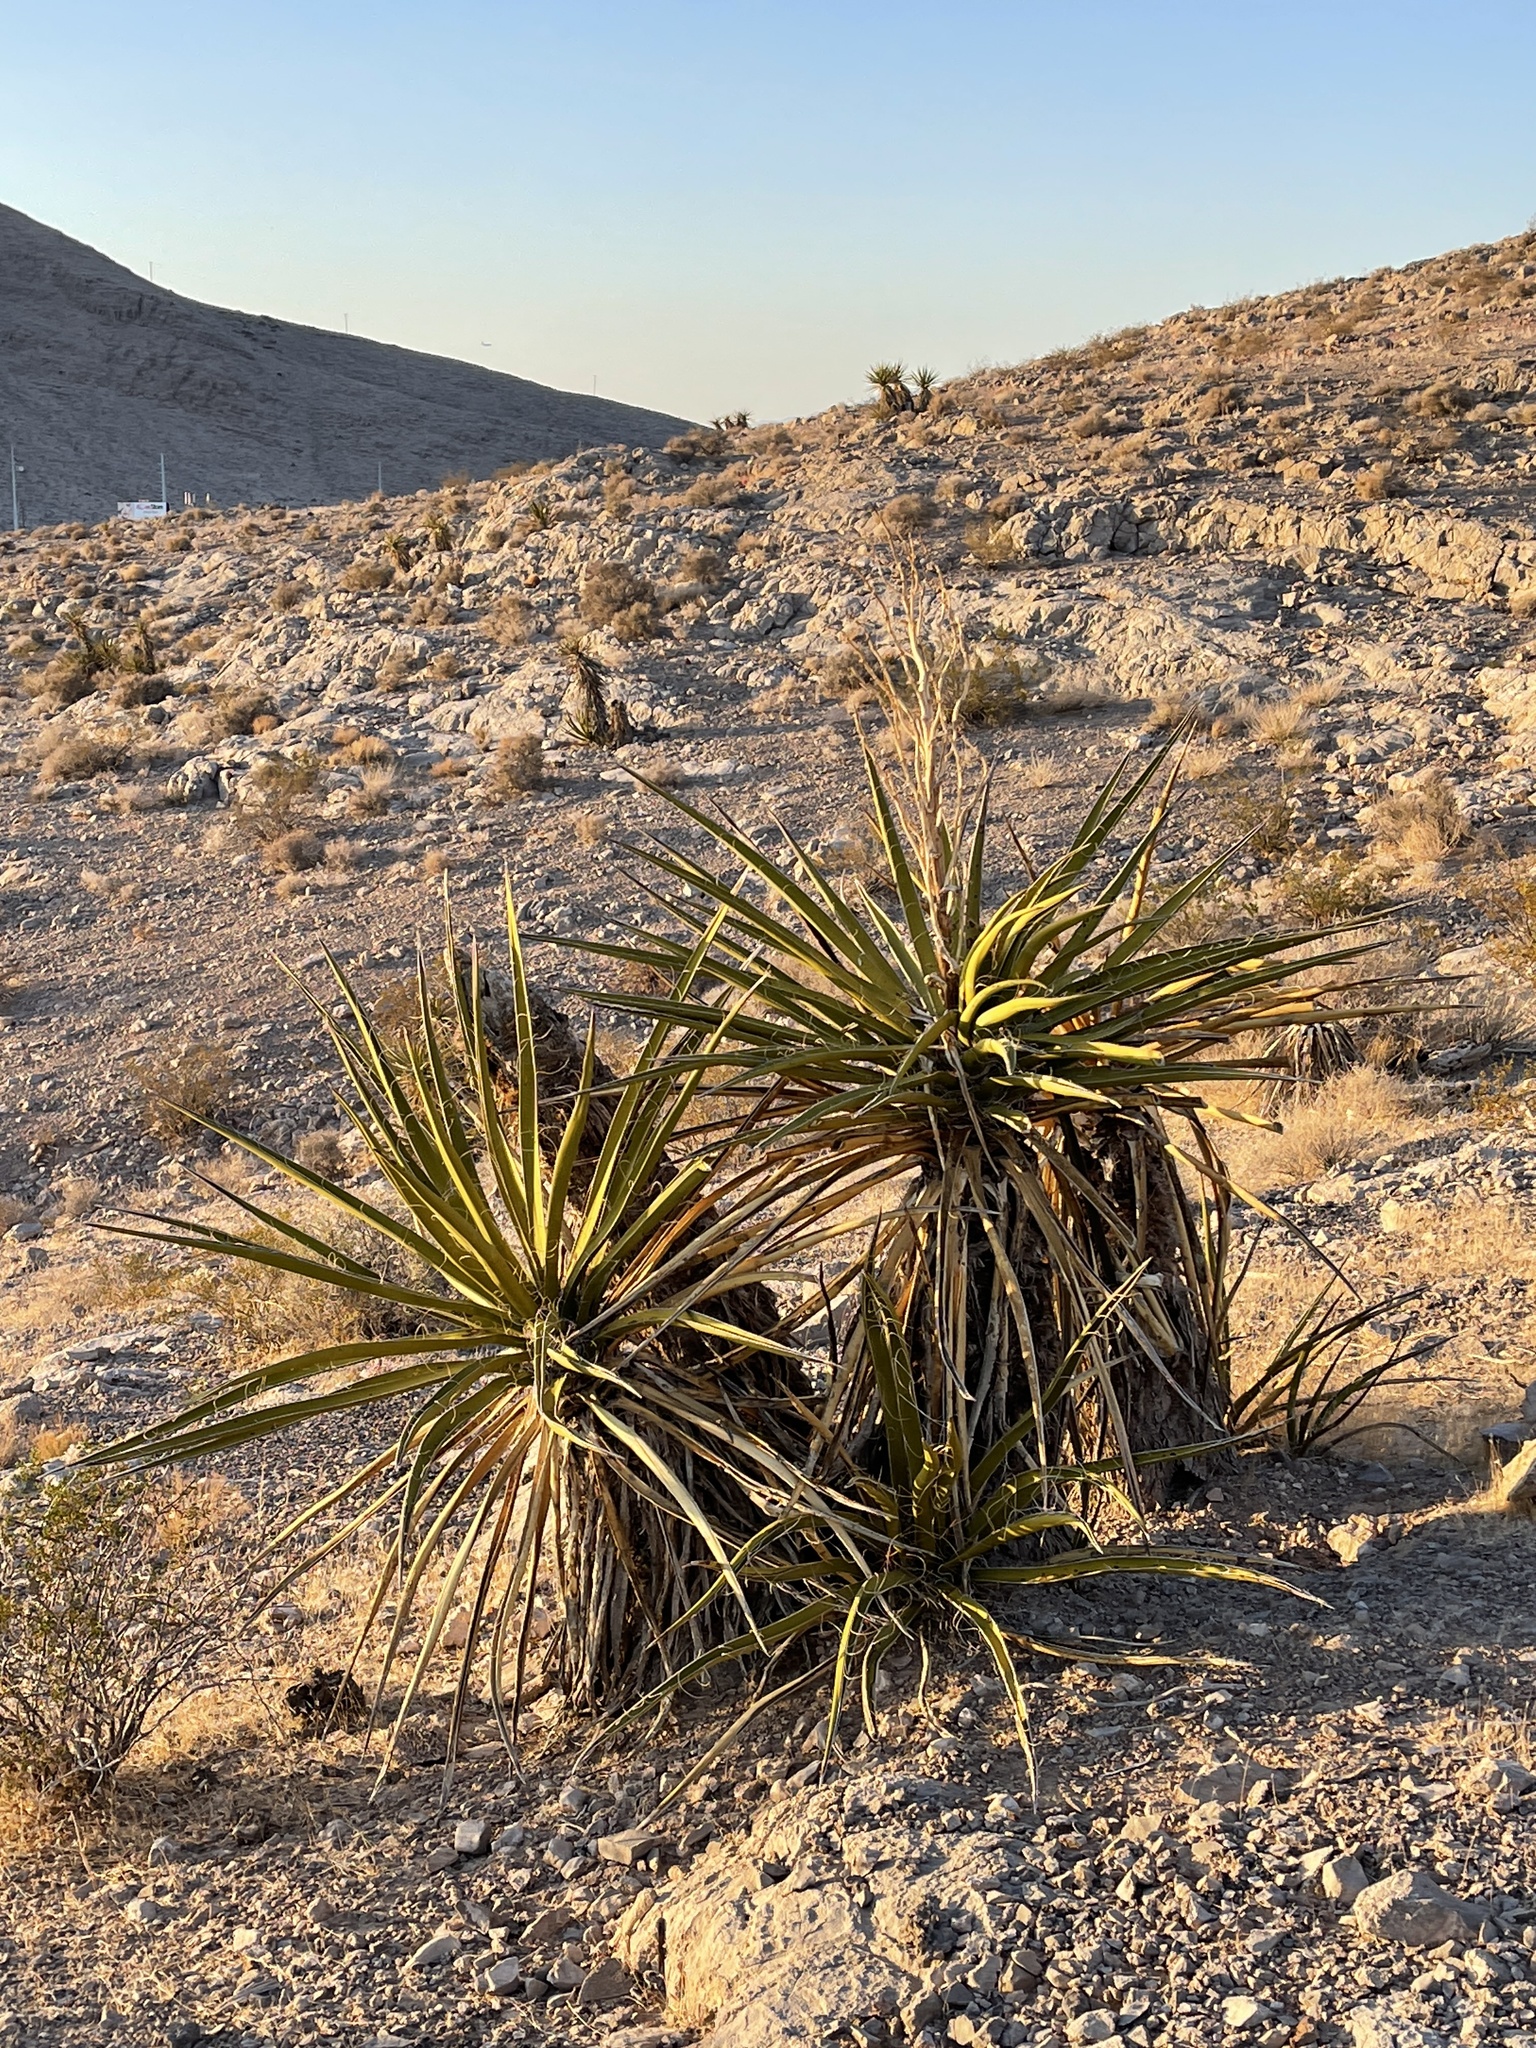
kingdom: Plantae
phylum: Tracheophyta
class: Liliopsida
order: Asparagales
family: Asparagaceae
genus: Yucca
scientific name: Yucca schidigera
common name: Mojave yucca
